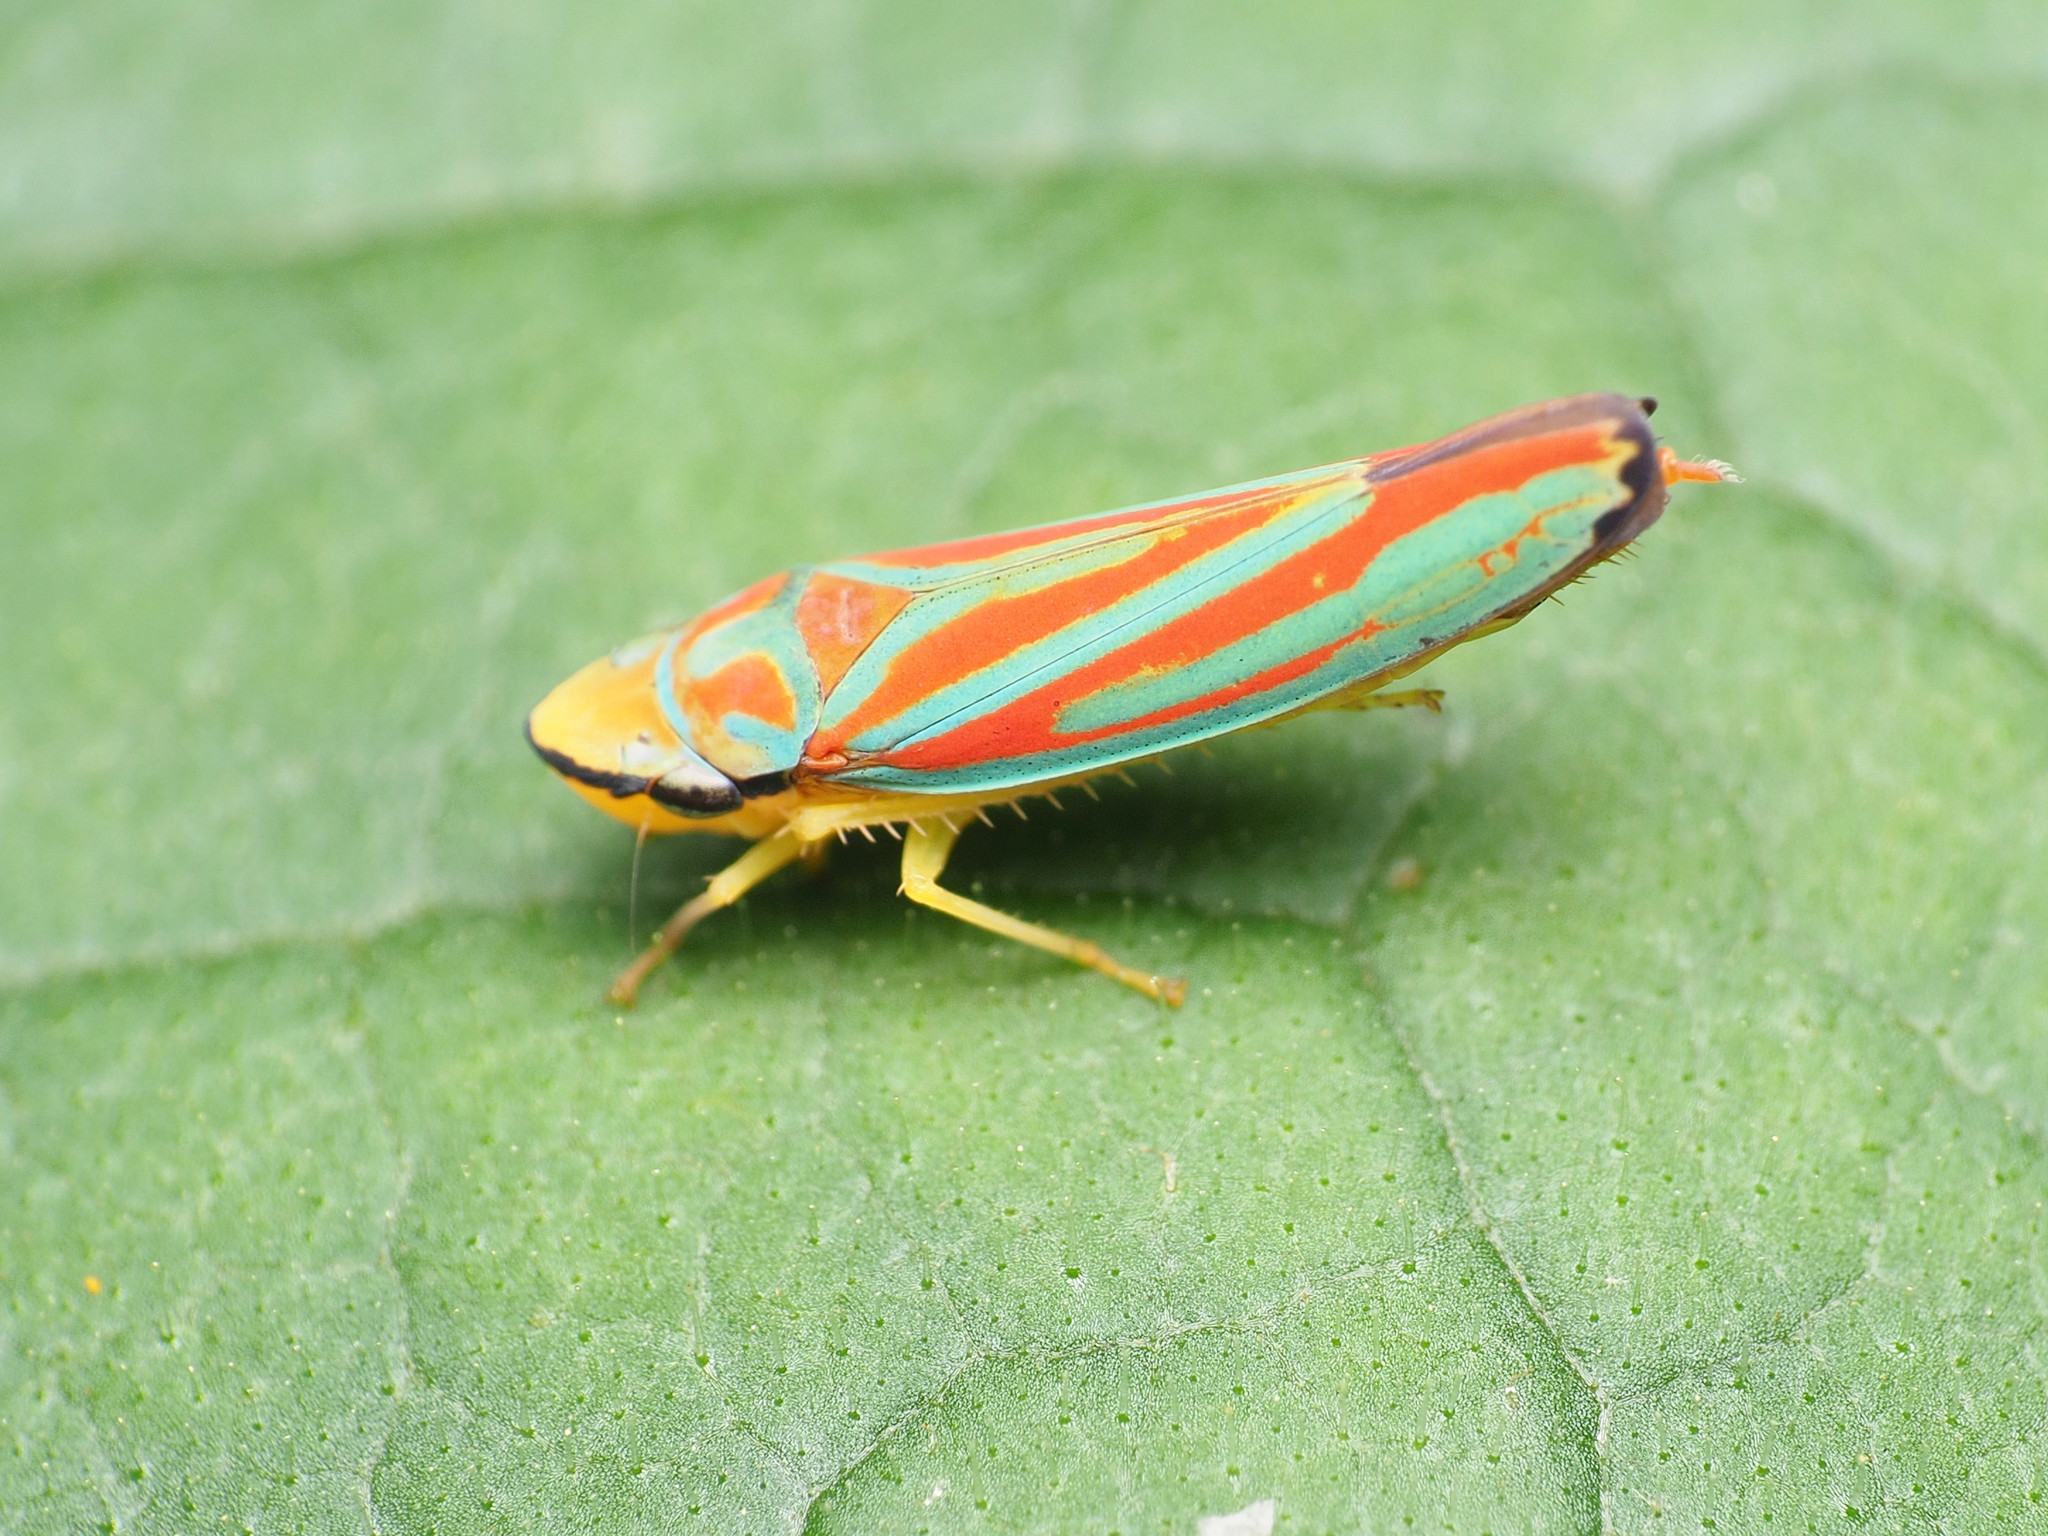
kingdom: Animalia
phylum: Arthropoda
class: Insecta
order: Hemiptera
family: Cicadellidae
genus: Graphocephala
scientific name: Graphocephala coccinea
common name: Candy-striped leafhopper
